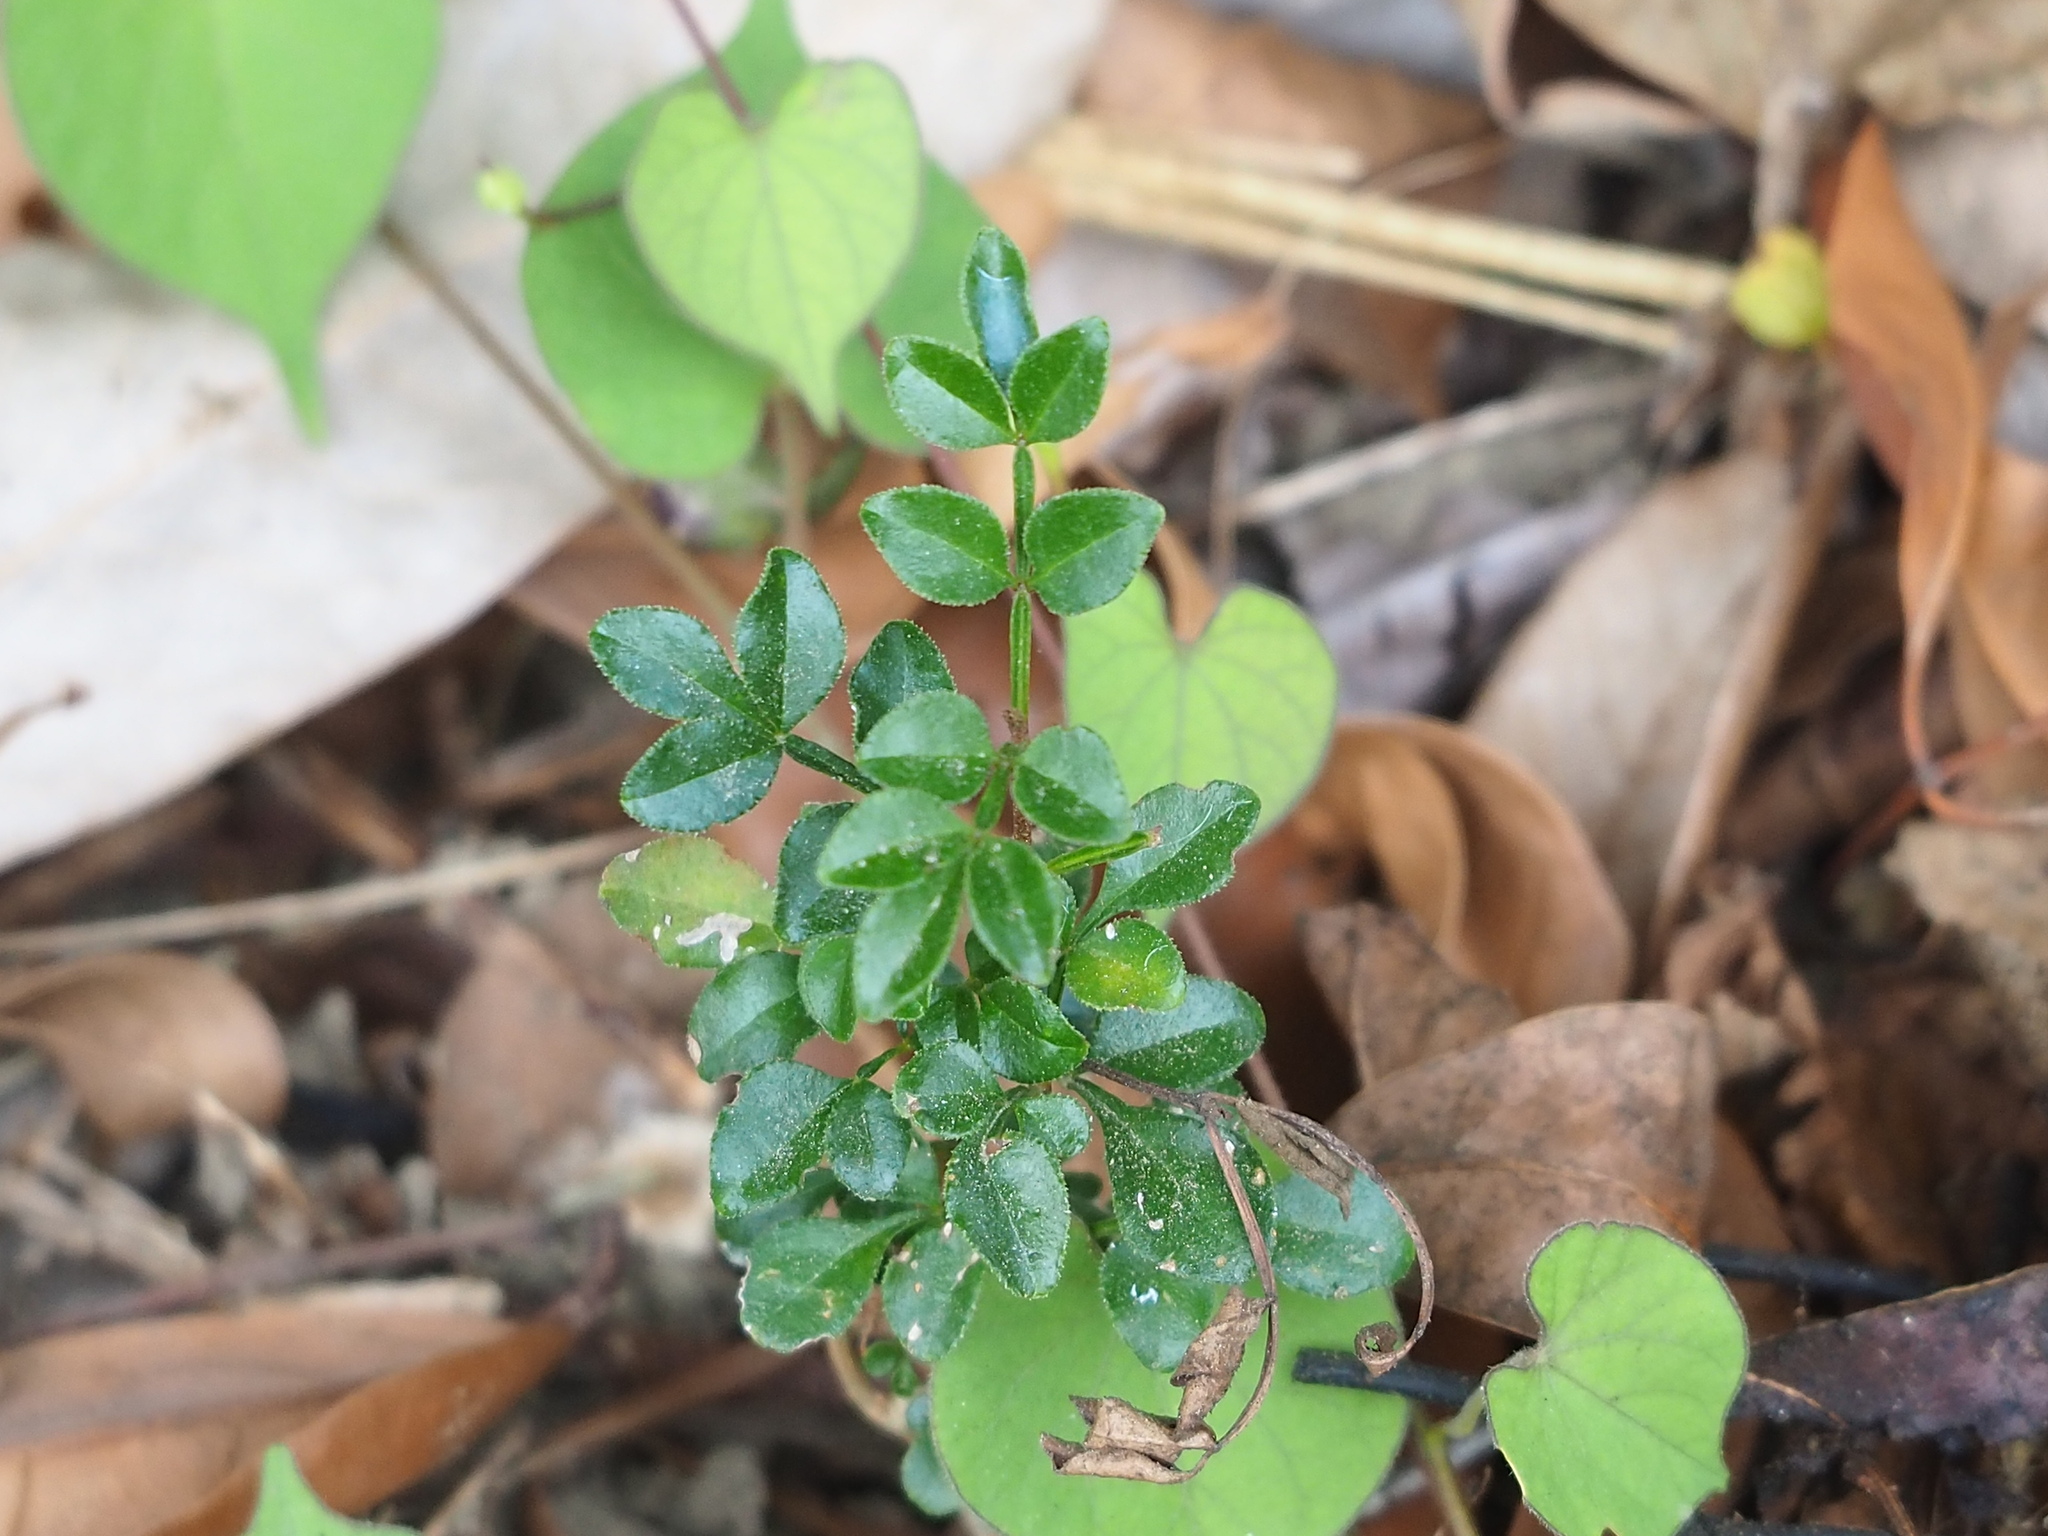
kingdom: Plantae
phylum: Tracheophyta
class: Magnoliopsida
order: Lamiales
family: Oleaceae
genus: Fraxinus
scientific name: Fraxinus griffithii
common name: Himalayan ash
